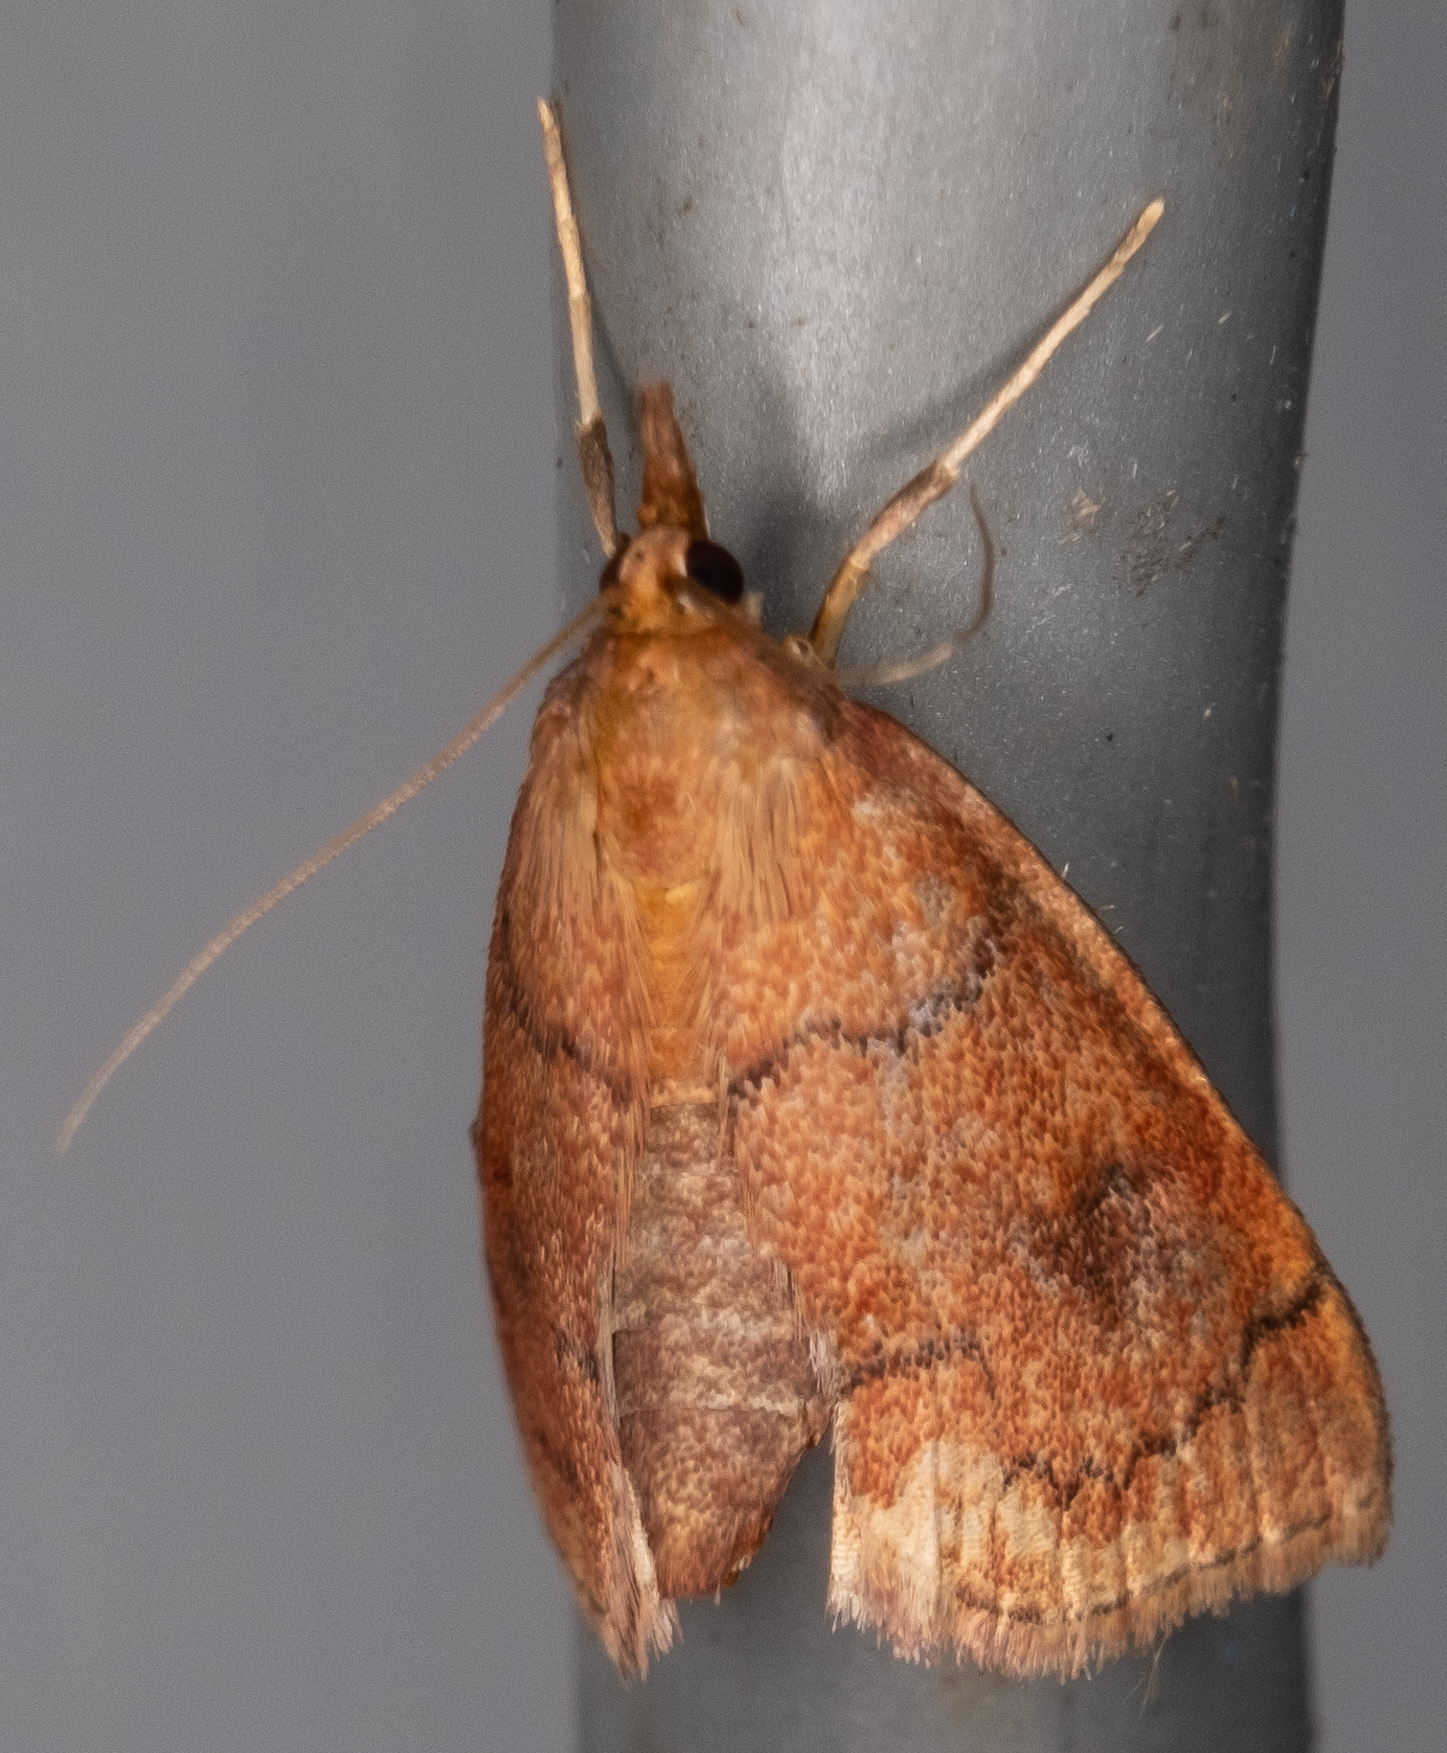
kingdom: Animalia
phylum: Arthropoda
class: Insecta
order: Lepidoptera
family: Crambidae
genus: Fumibotys
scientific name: Fumibotys fumalis
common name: Mint root borer moth
